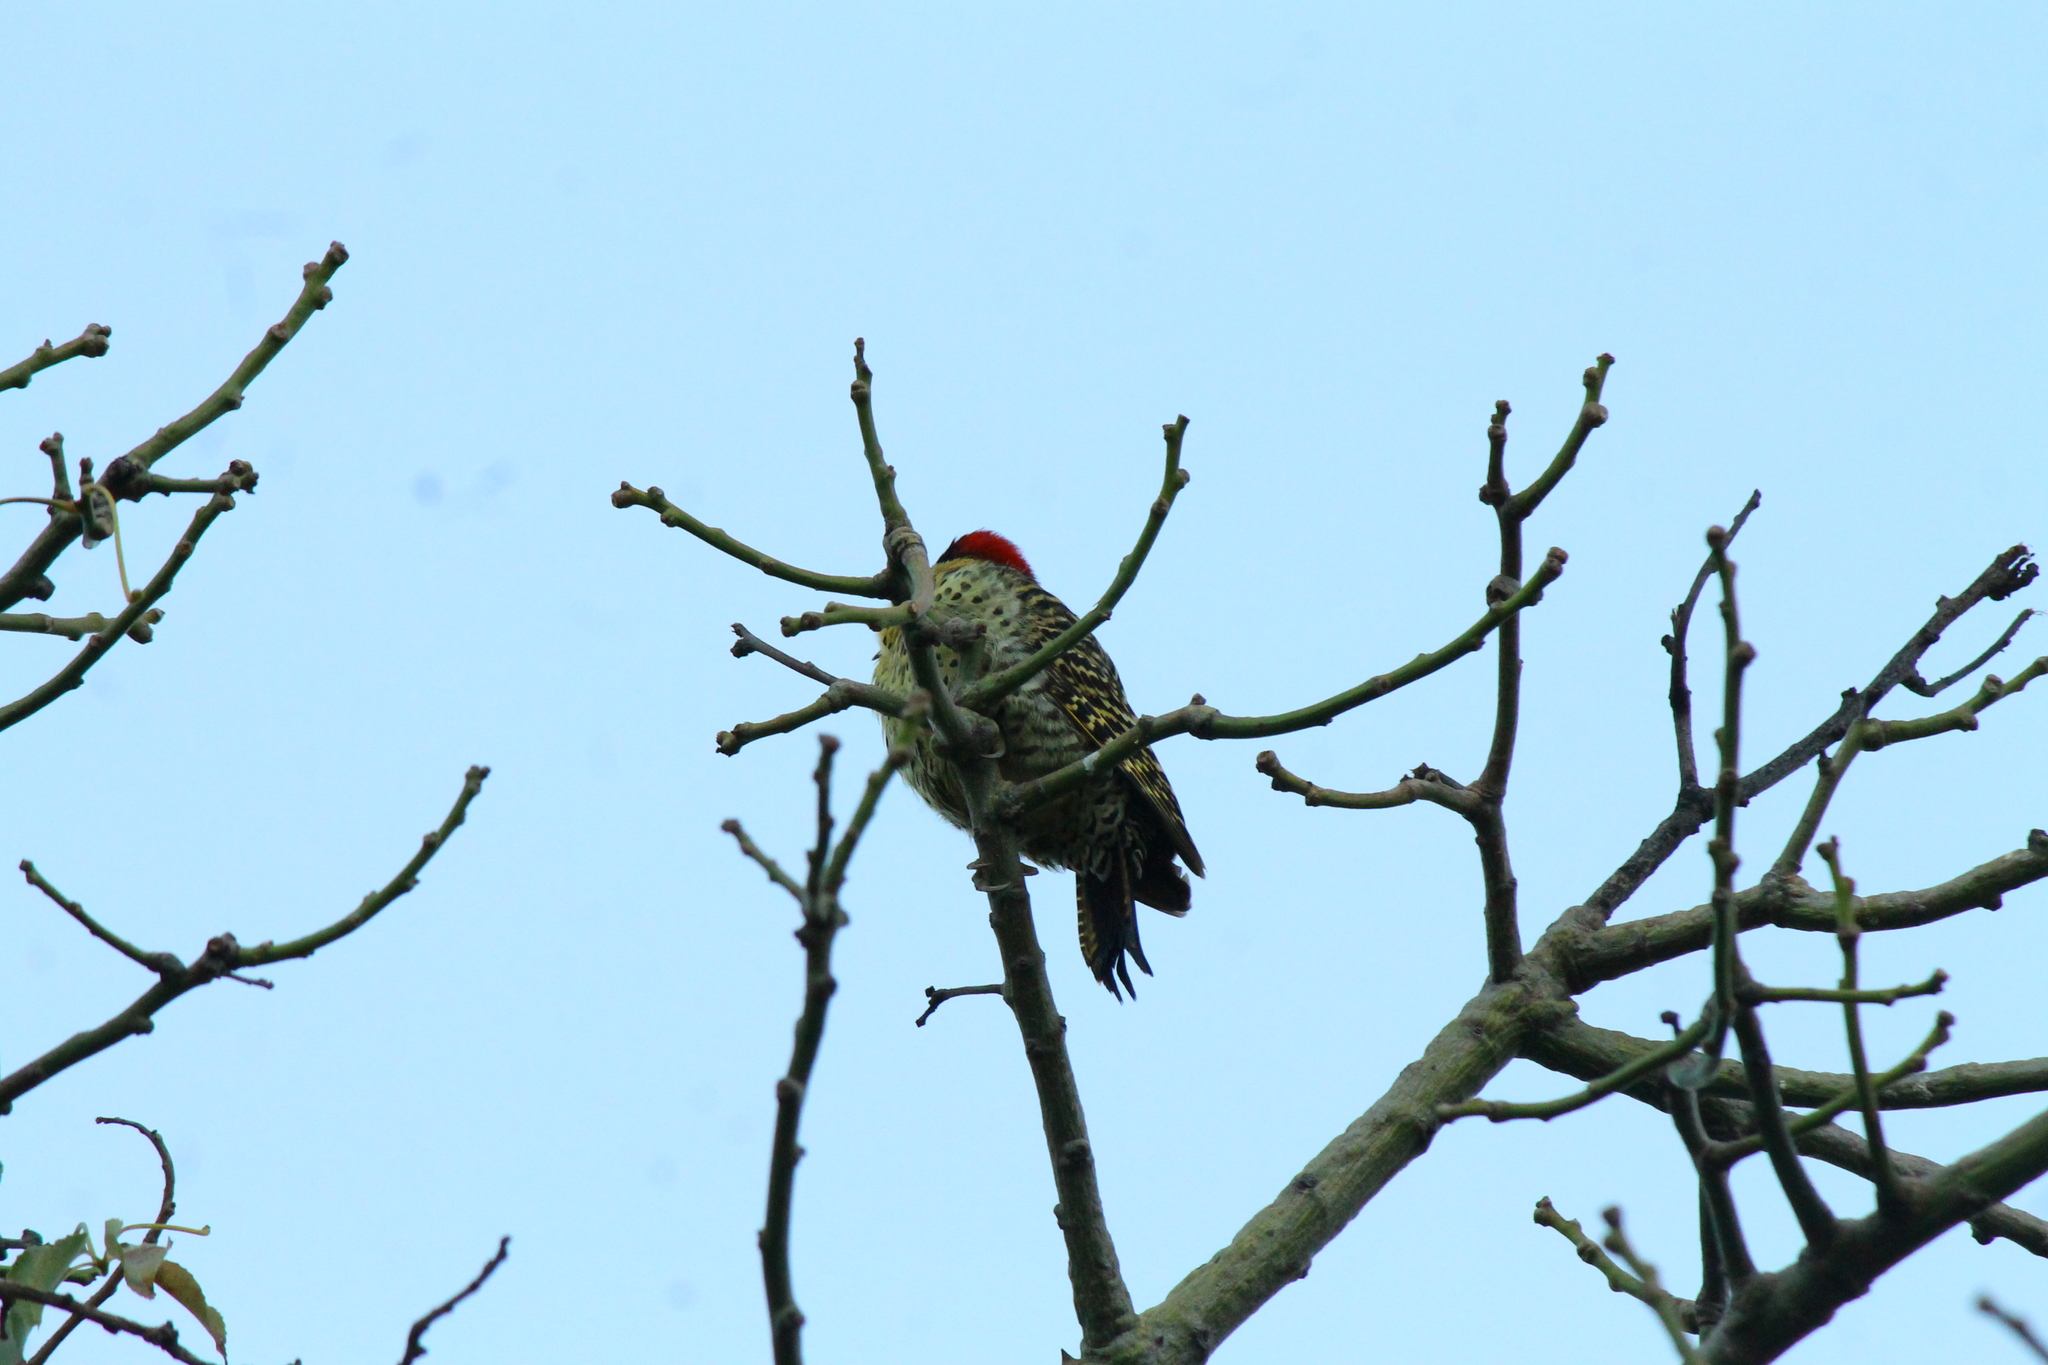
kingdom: Animalia
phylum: Chordata
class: Aves
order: Piciformes
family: Picidae
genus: Colaptes
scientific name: Colaptes melanochloros
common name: Green-barred woodpecker
